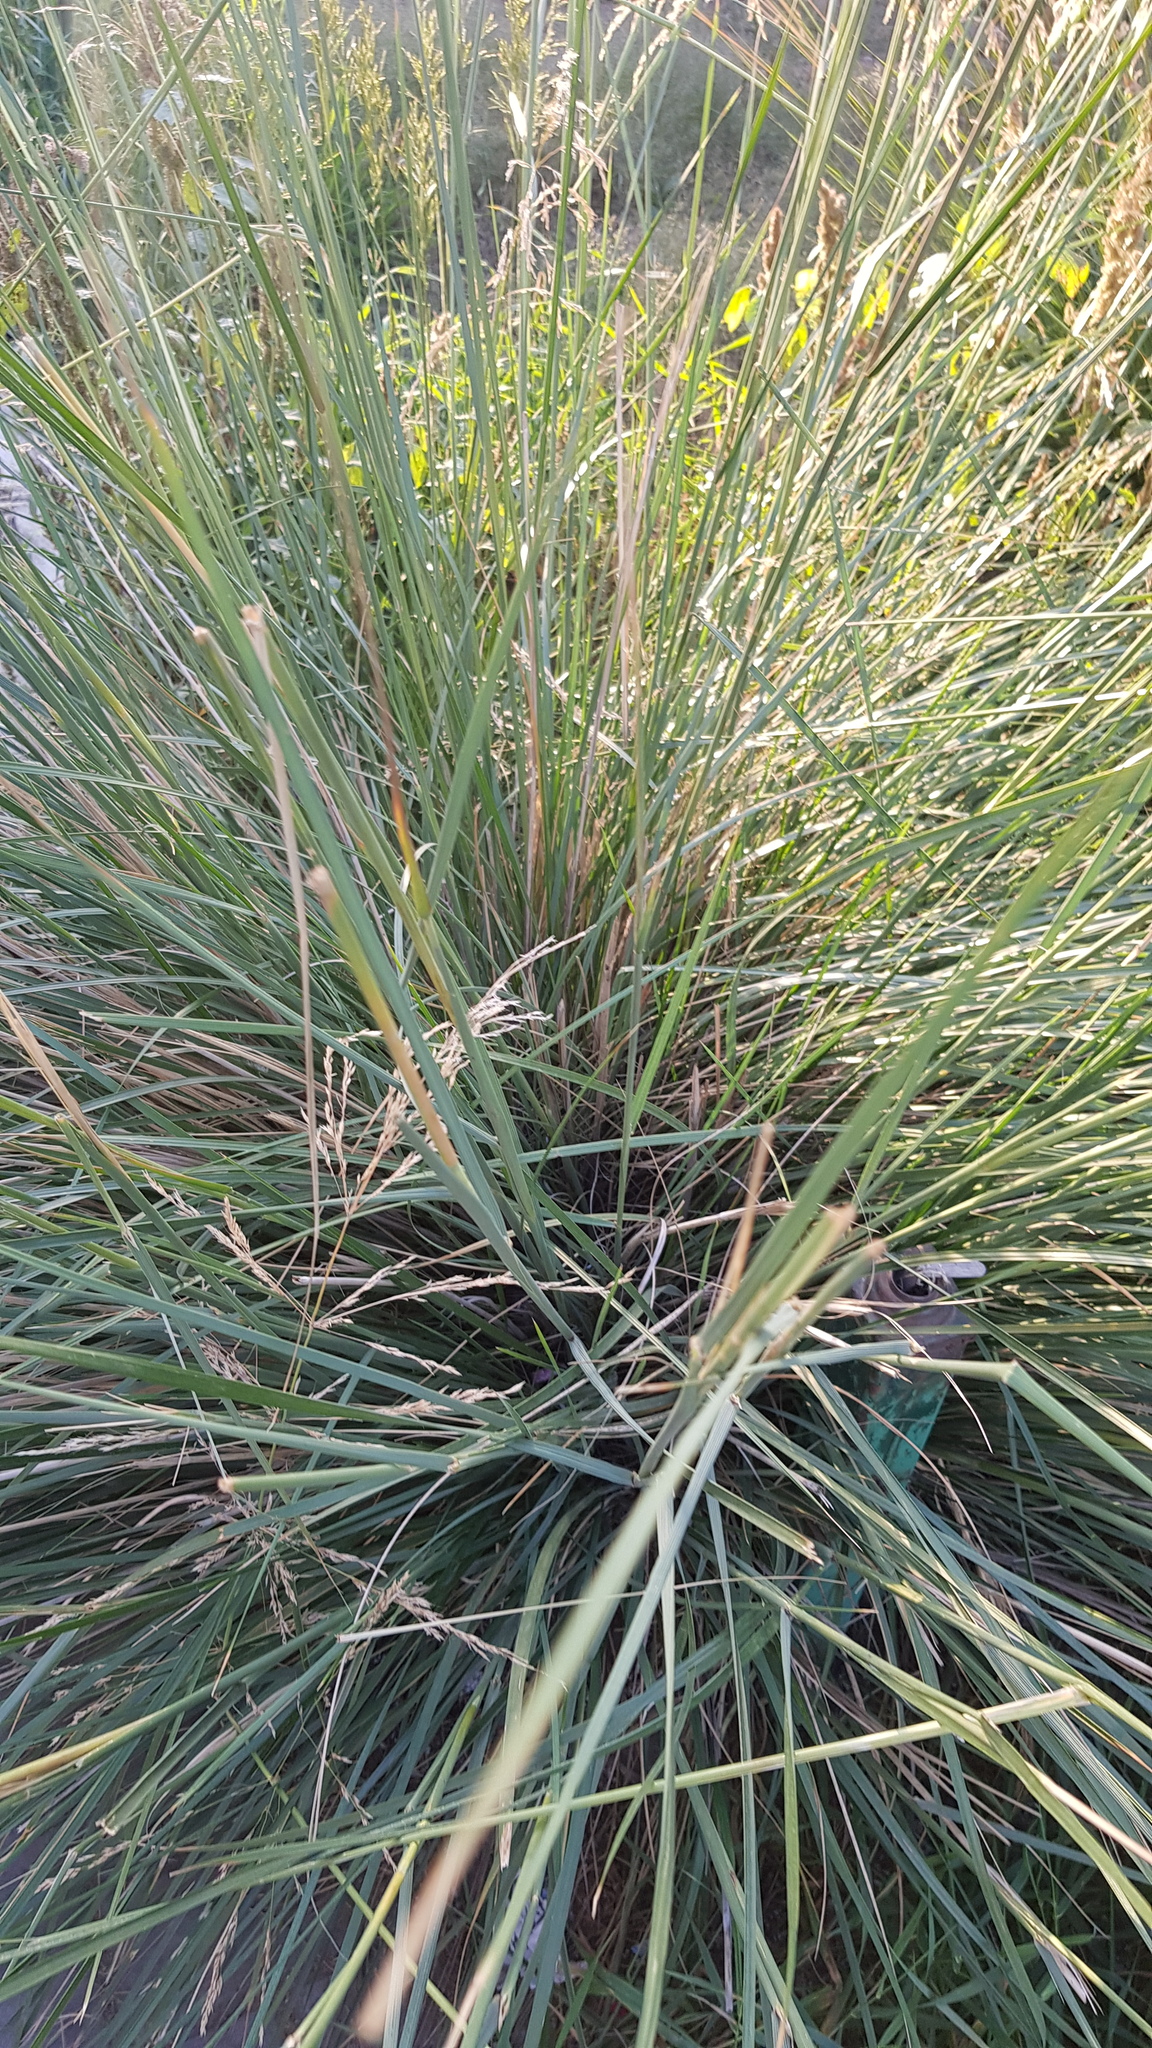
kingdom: Plantae
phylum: Tracheophyta
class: Liliopsida
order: Poales
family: Poaceae
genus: Neotrinia
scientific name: Neotrinia splendens
